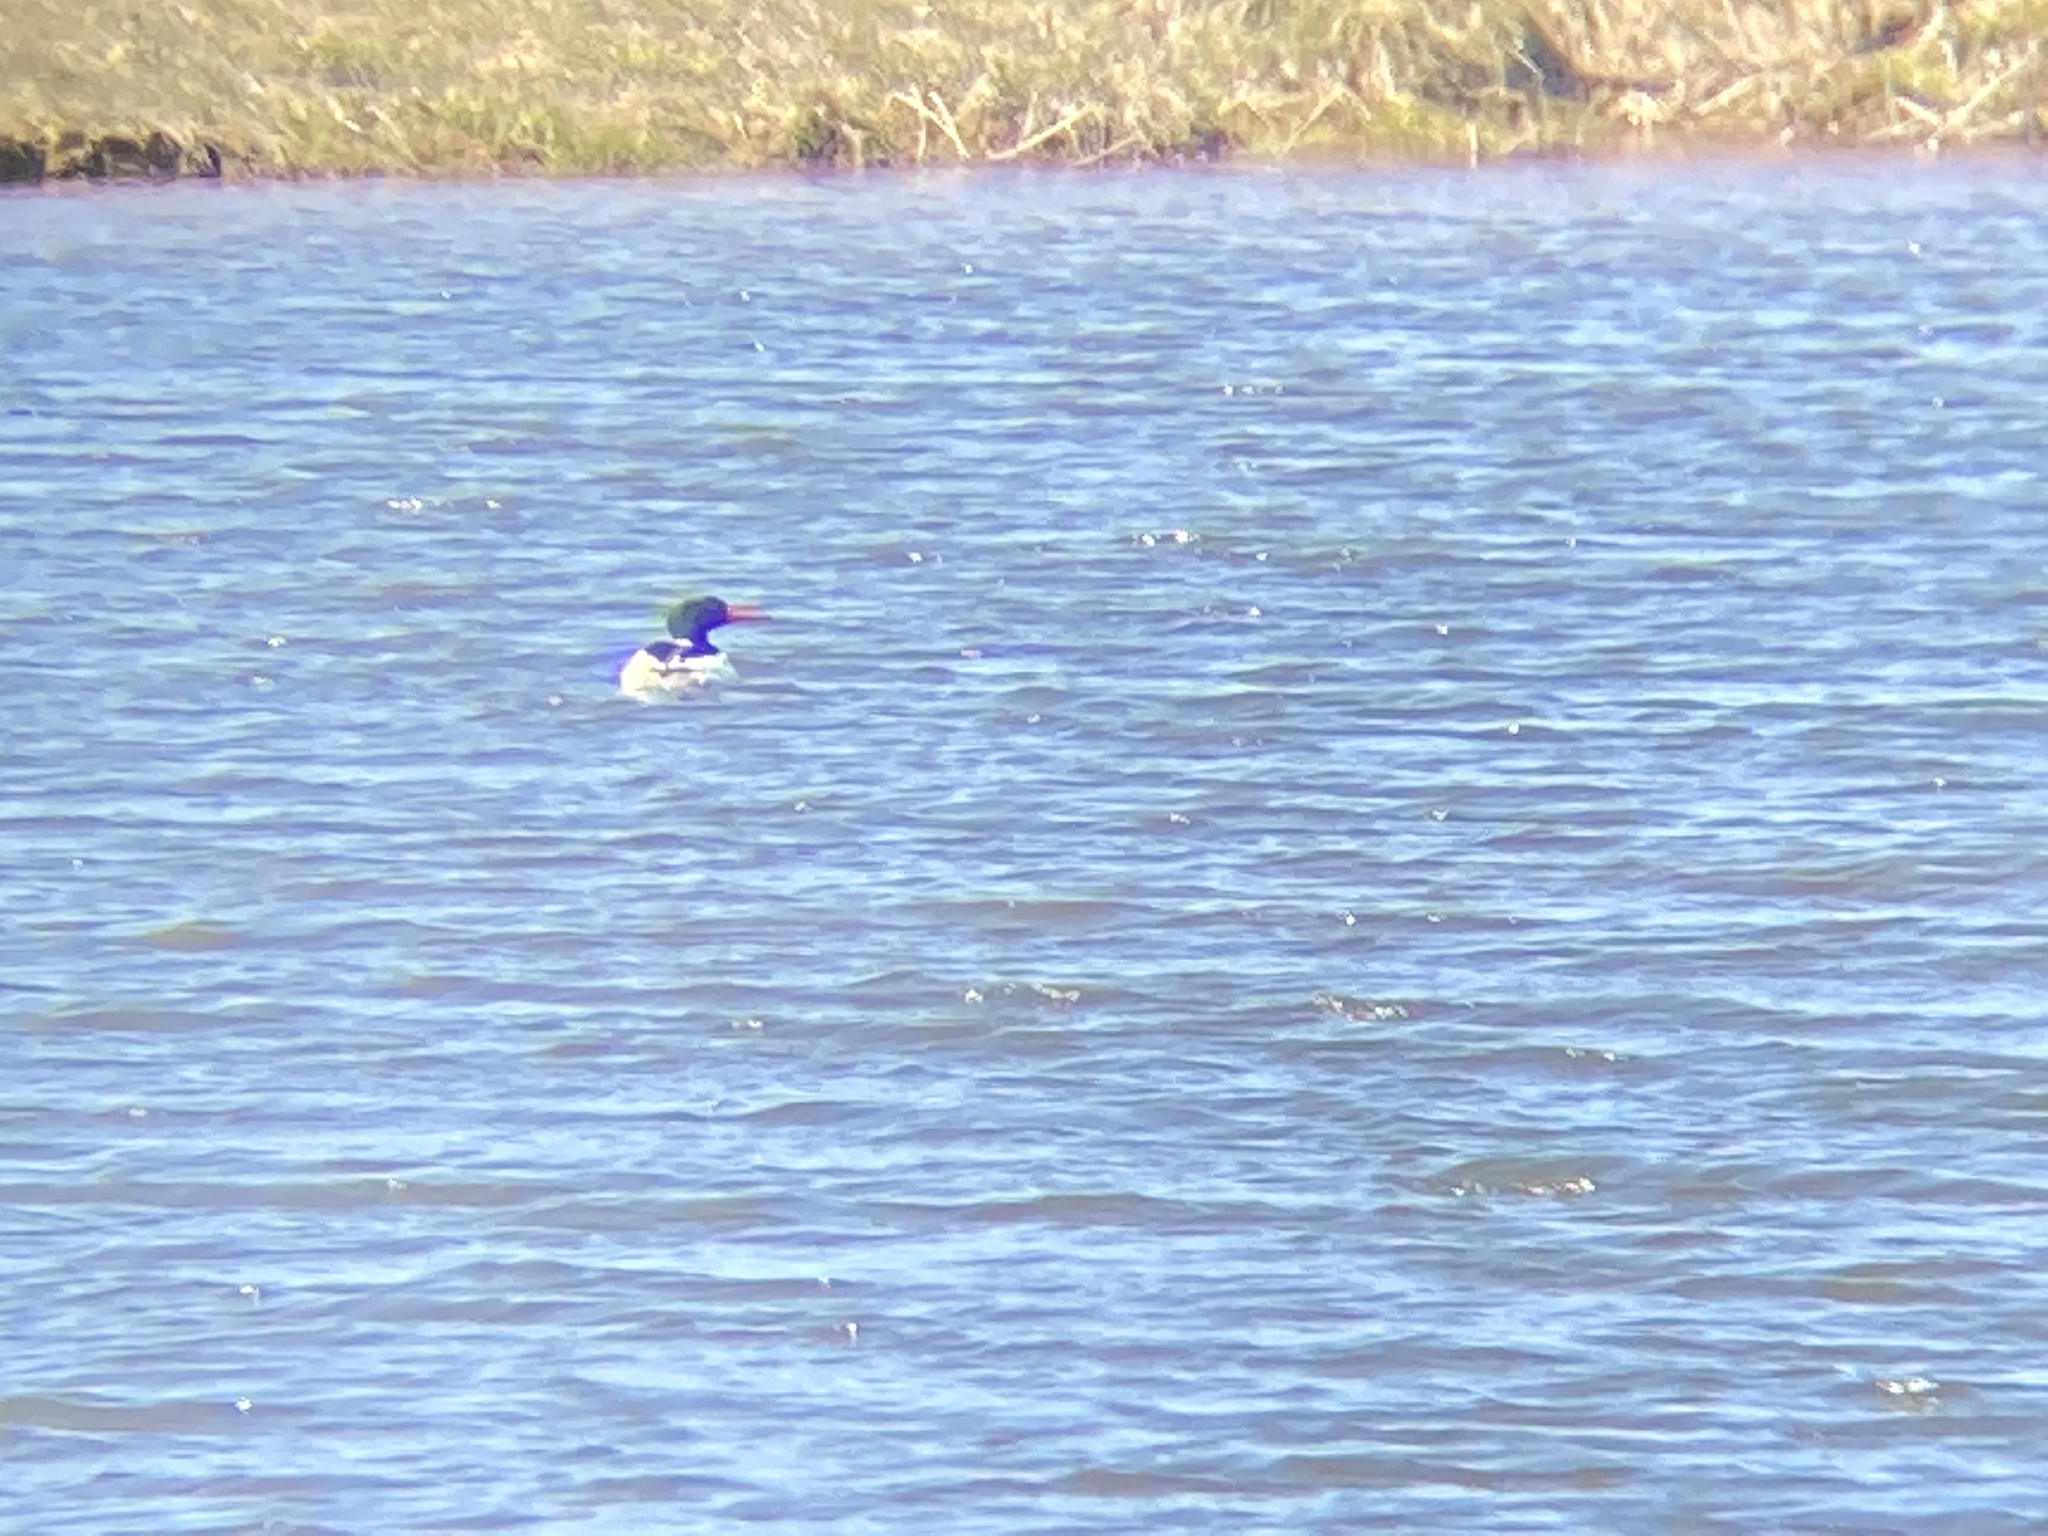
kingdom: Animalia
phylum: Chordata
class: Aves
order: Anseriformes
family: Anatidae
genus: Mergus
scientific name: Mergus merganser
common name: Common merganser
